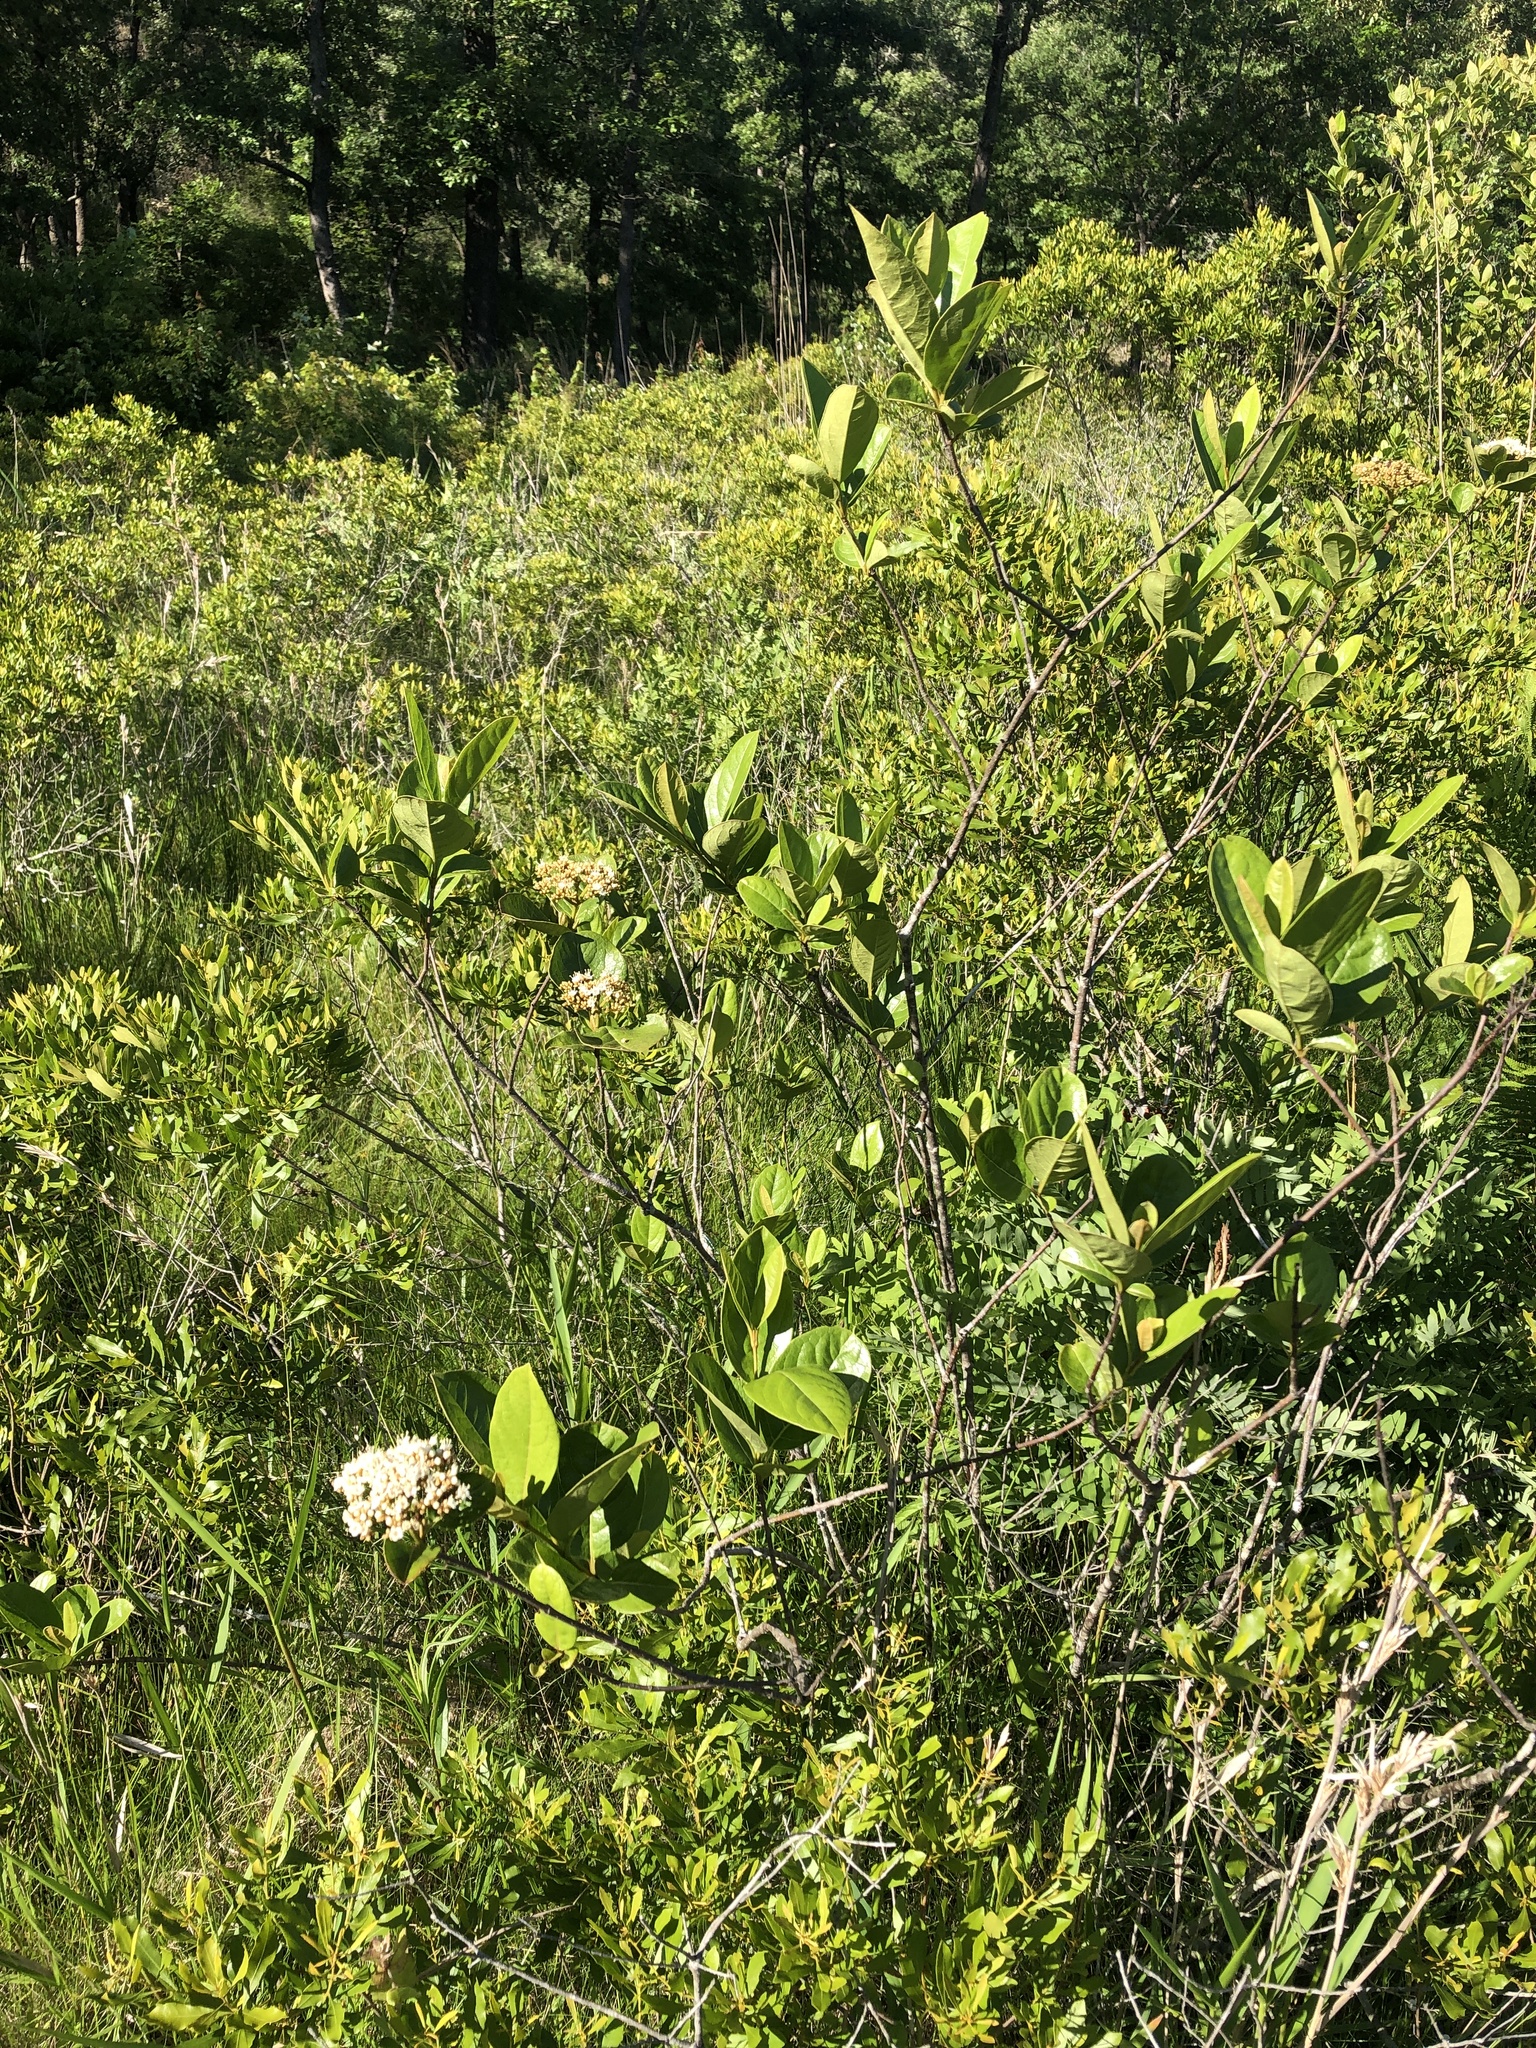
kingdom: Plantae
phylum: Tracheophyta
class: Magnoliopsida
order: Dipsacales
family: Viburnaceae
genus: Viburnum
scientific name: Viburnum nudum
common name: Possum haw
